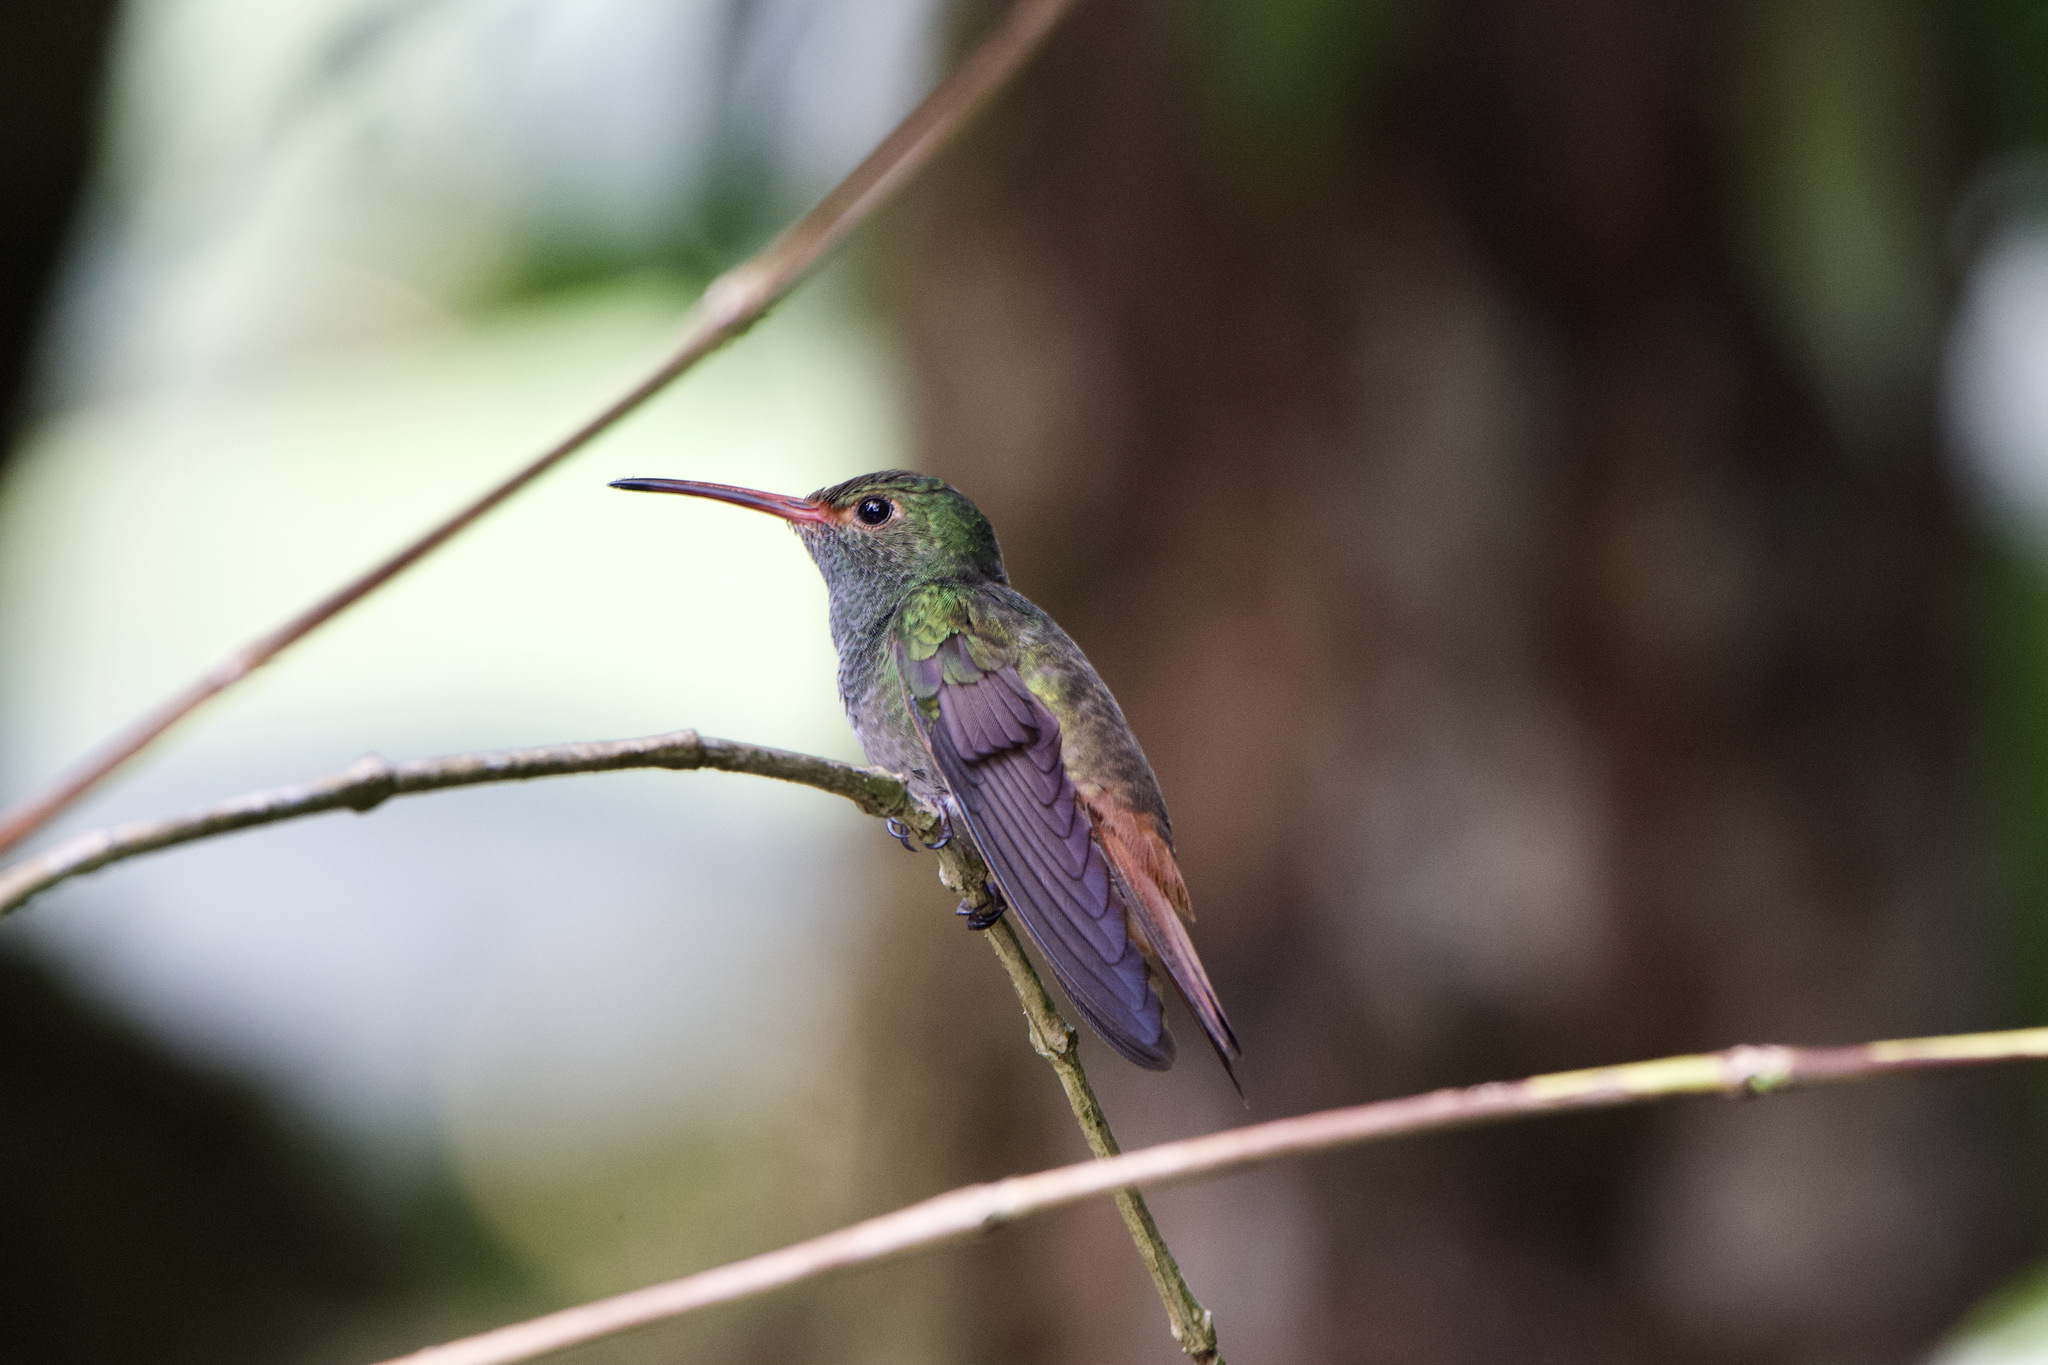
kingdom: Animalia
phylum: Chordata
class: Aves
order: Apodiformes
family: Trochilidae
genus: Amazilia
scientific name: Amazilia tzacatl
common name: Rufous-tailed hummingbird
